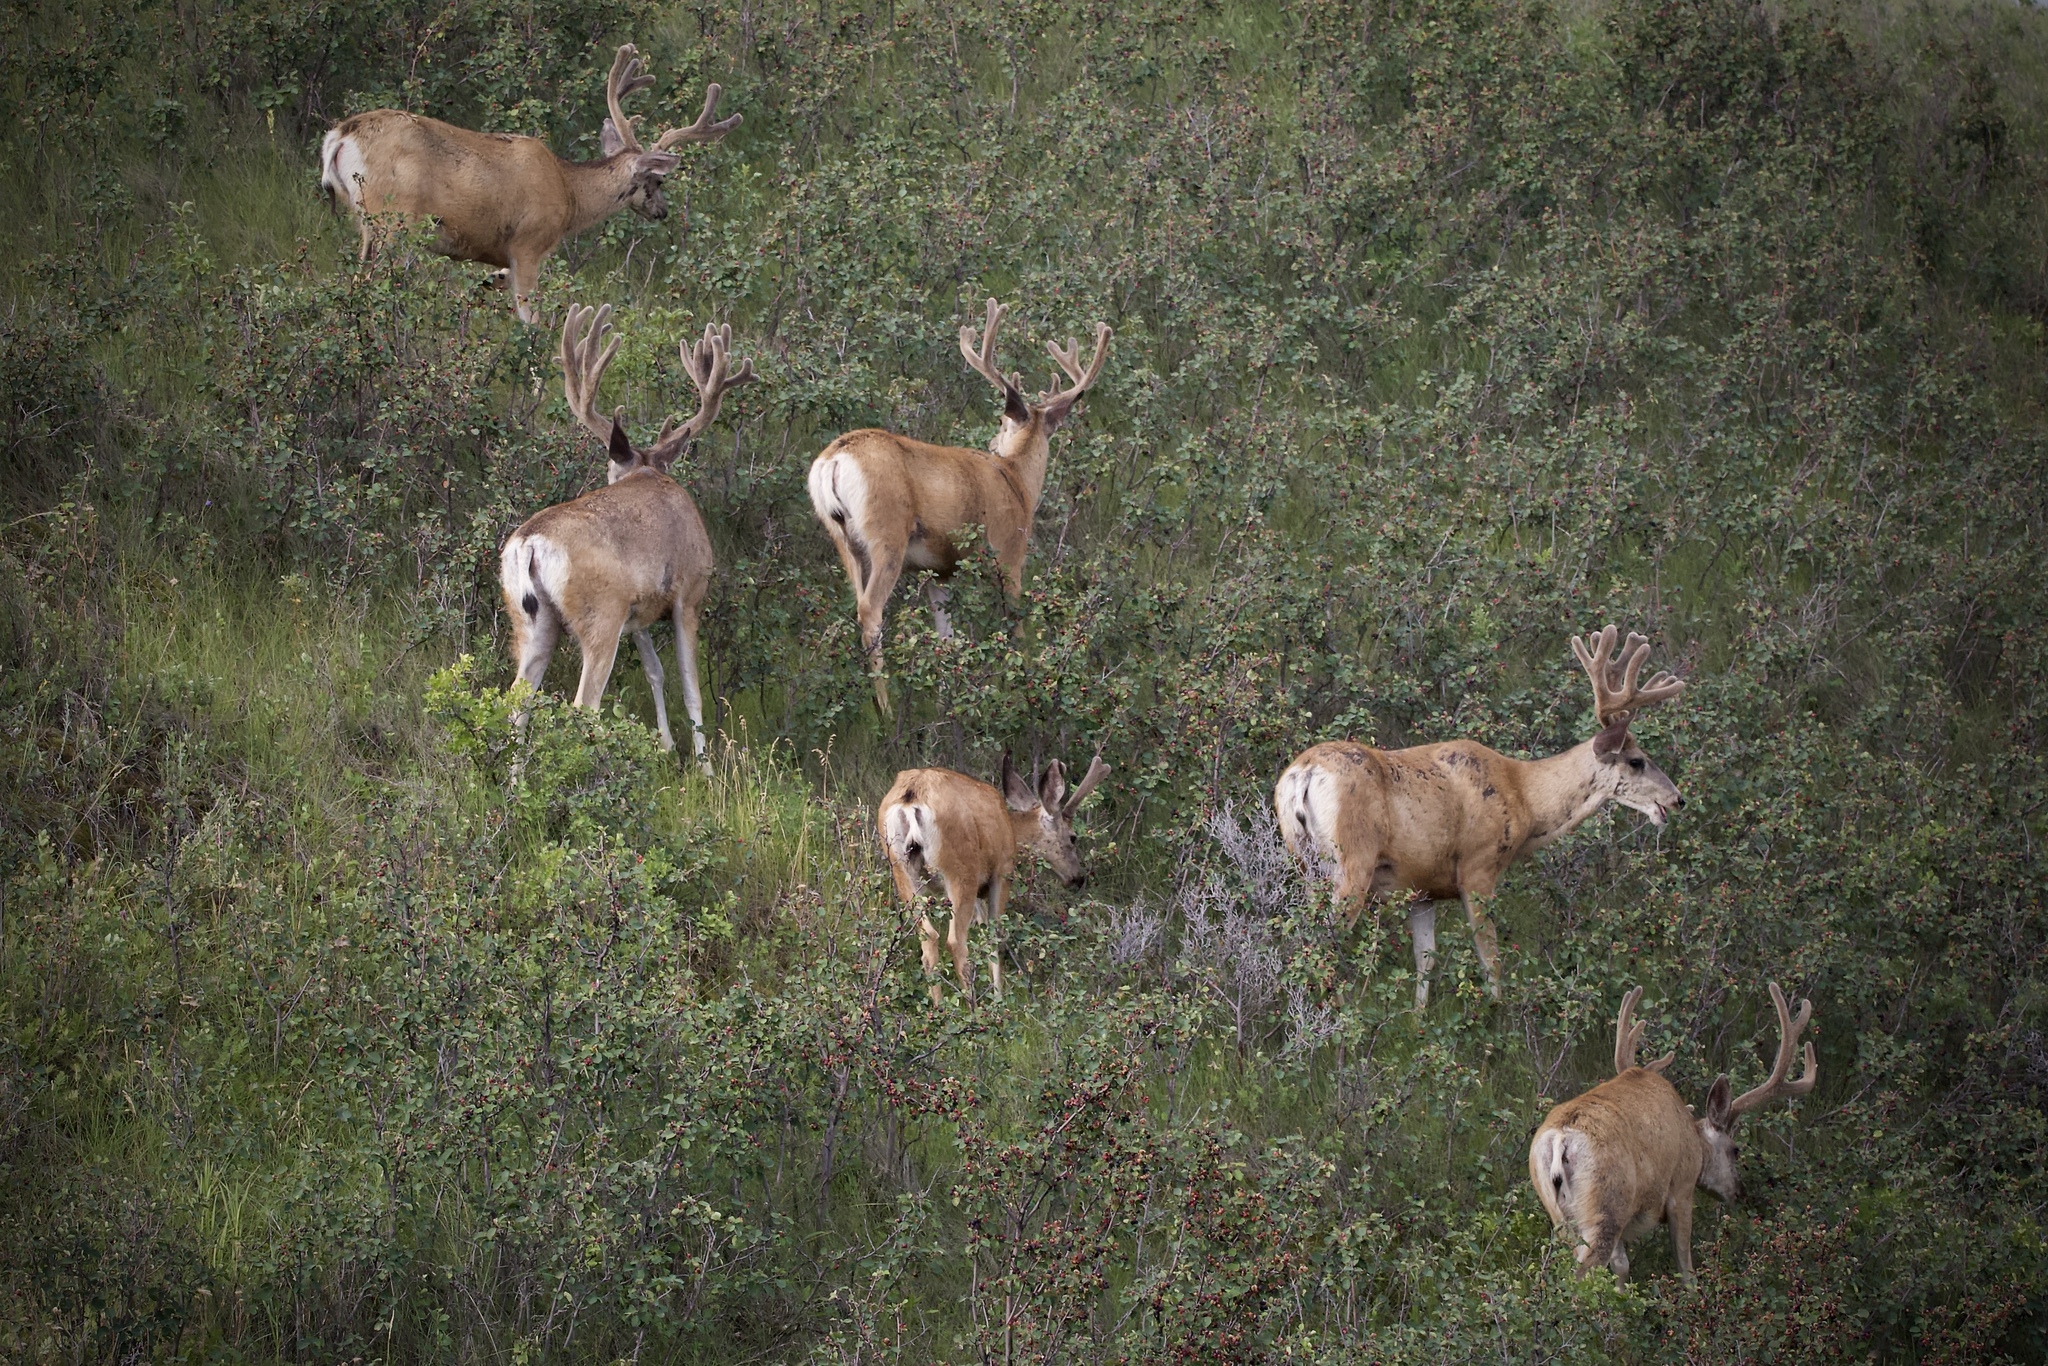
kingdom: Animalia
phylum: Chordata
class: Mammalia
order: Artiodactyla
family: Cervidae
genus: Odocoileus
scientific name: Odocoileus hemionus
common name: Mule deer
